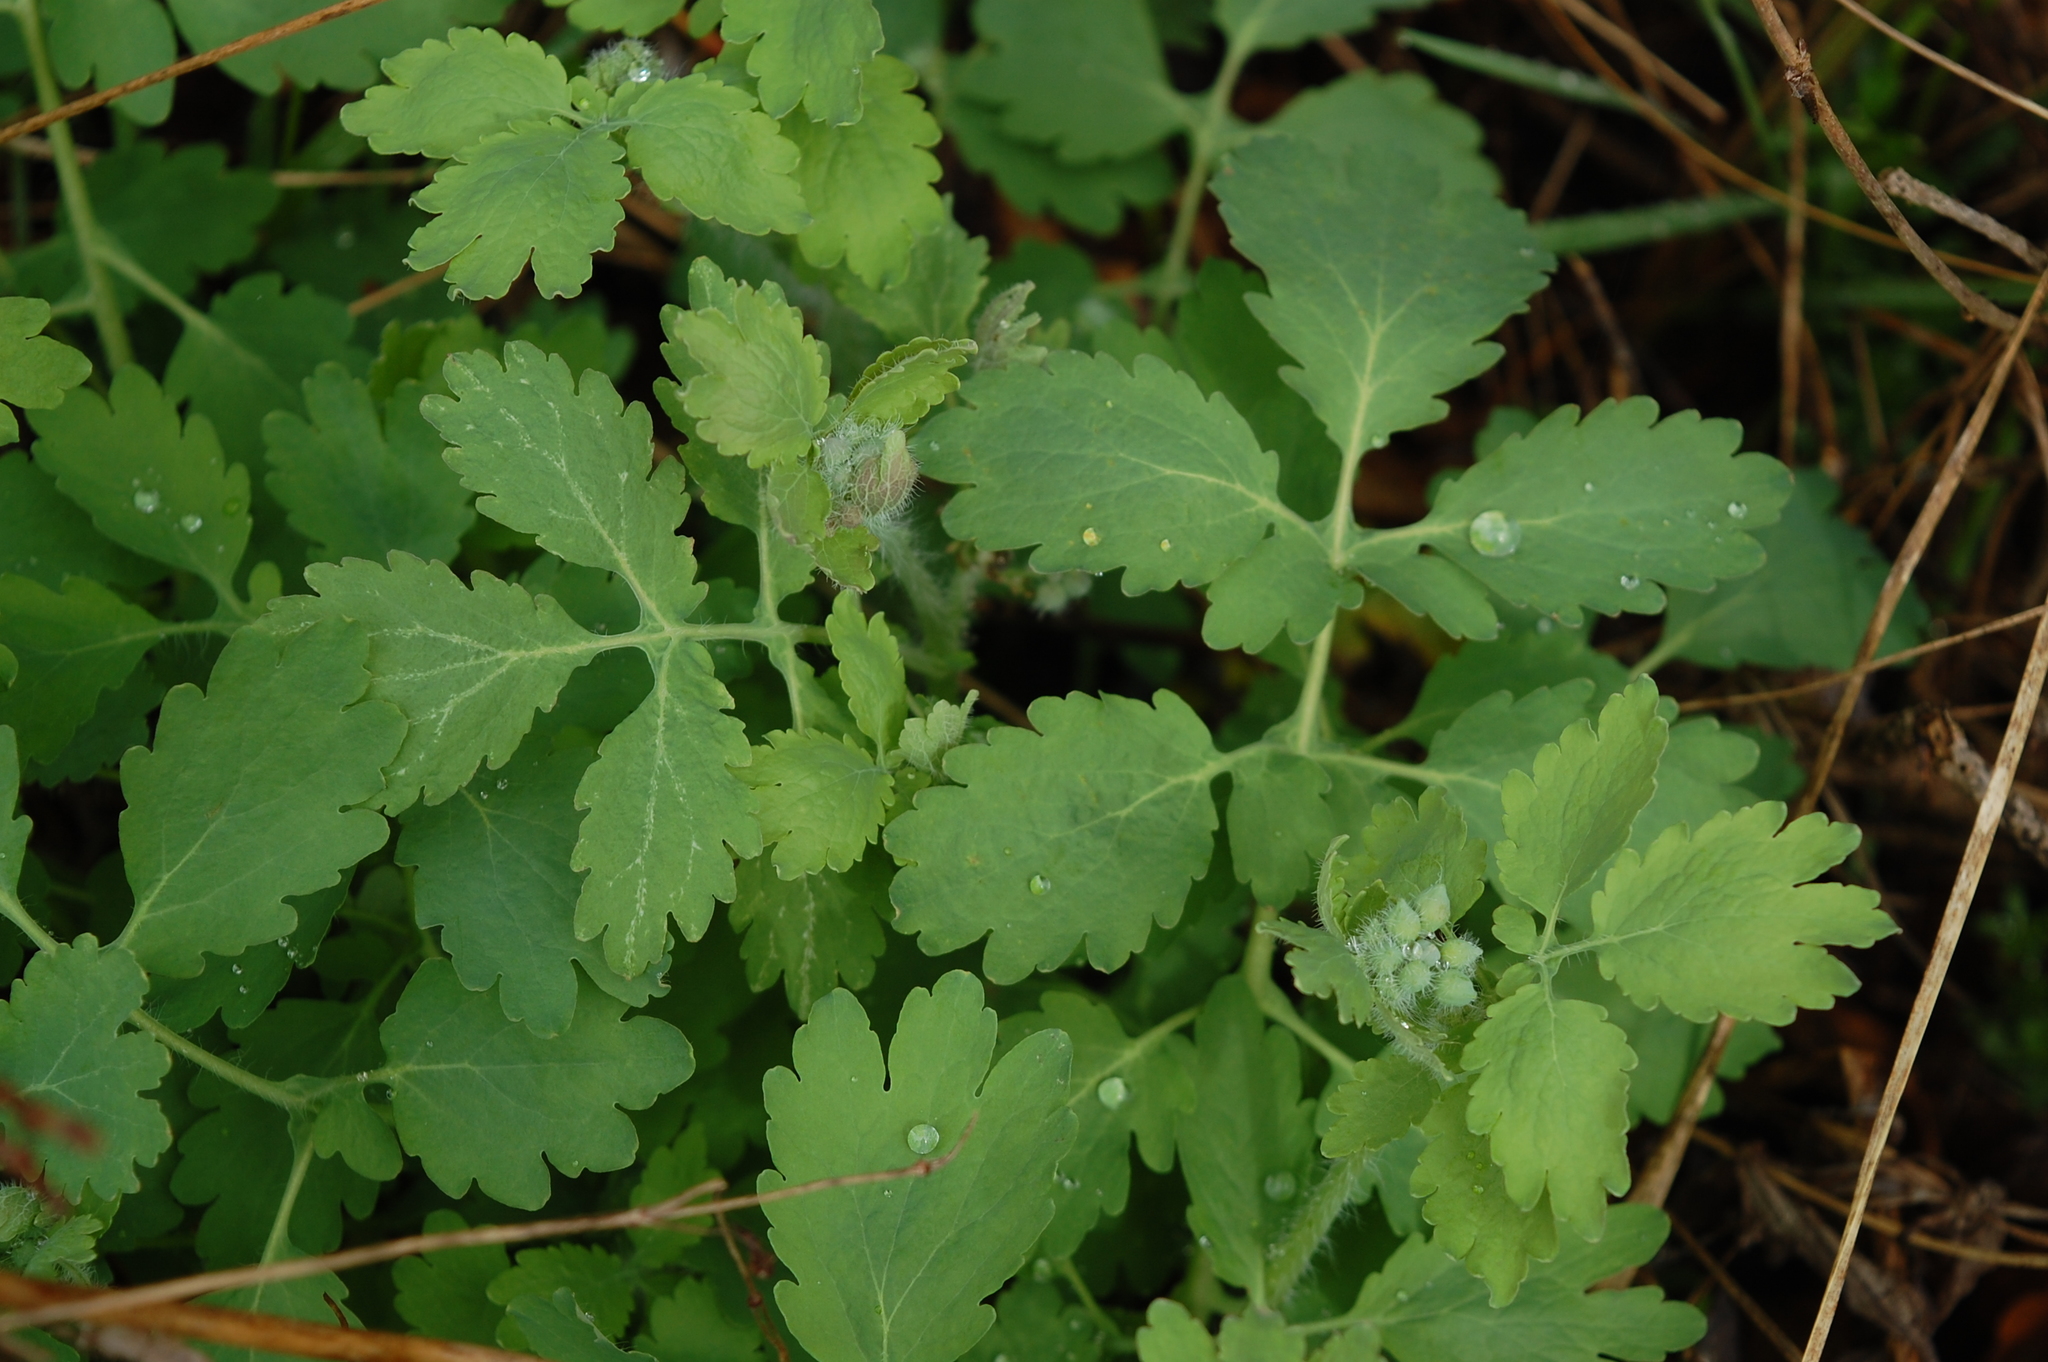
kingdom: Plantae
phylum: Tracheophyta
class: Magnoliopsida
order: Ranunculales
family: Papaveraceae
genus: Chelidonium
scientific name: Chelidonium majus
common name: Greater celandine
